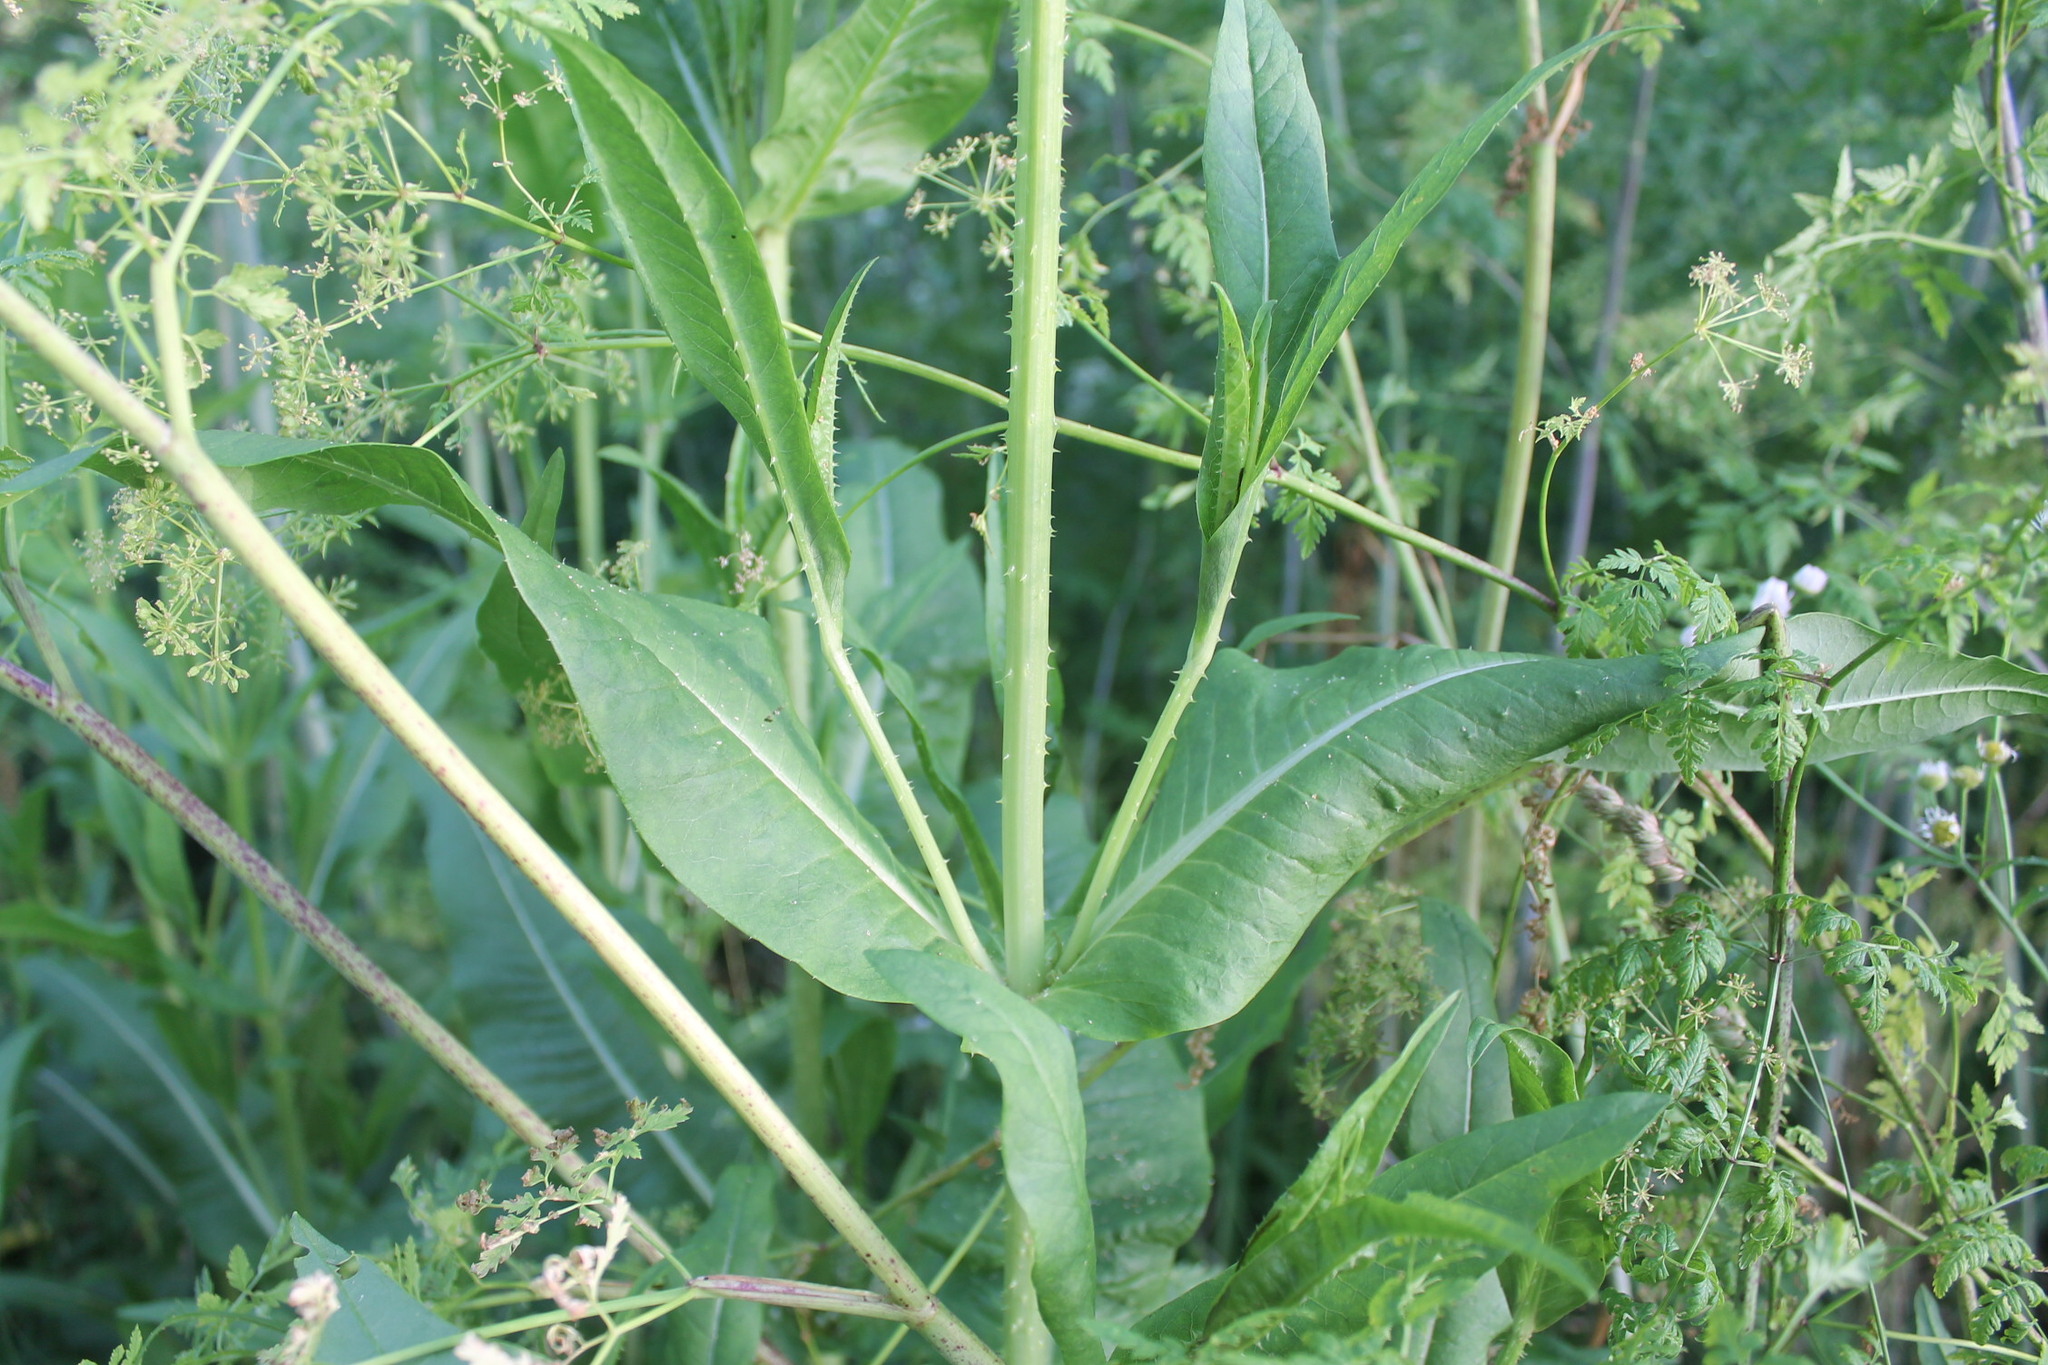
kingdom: Plantae
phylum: Tracheophyta
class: Magnoliopsida
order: Dipsacales
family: Caprifoliaceae
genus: Dipsacus
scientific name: Dipsacus fullonum
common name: Teasel
